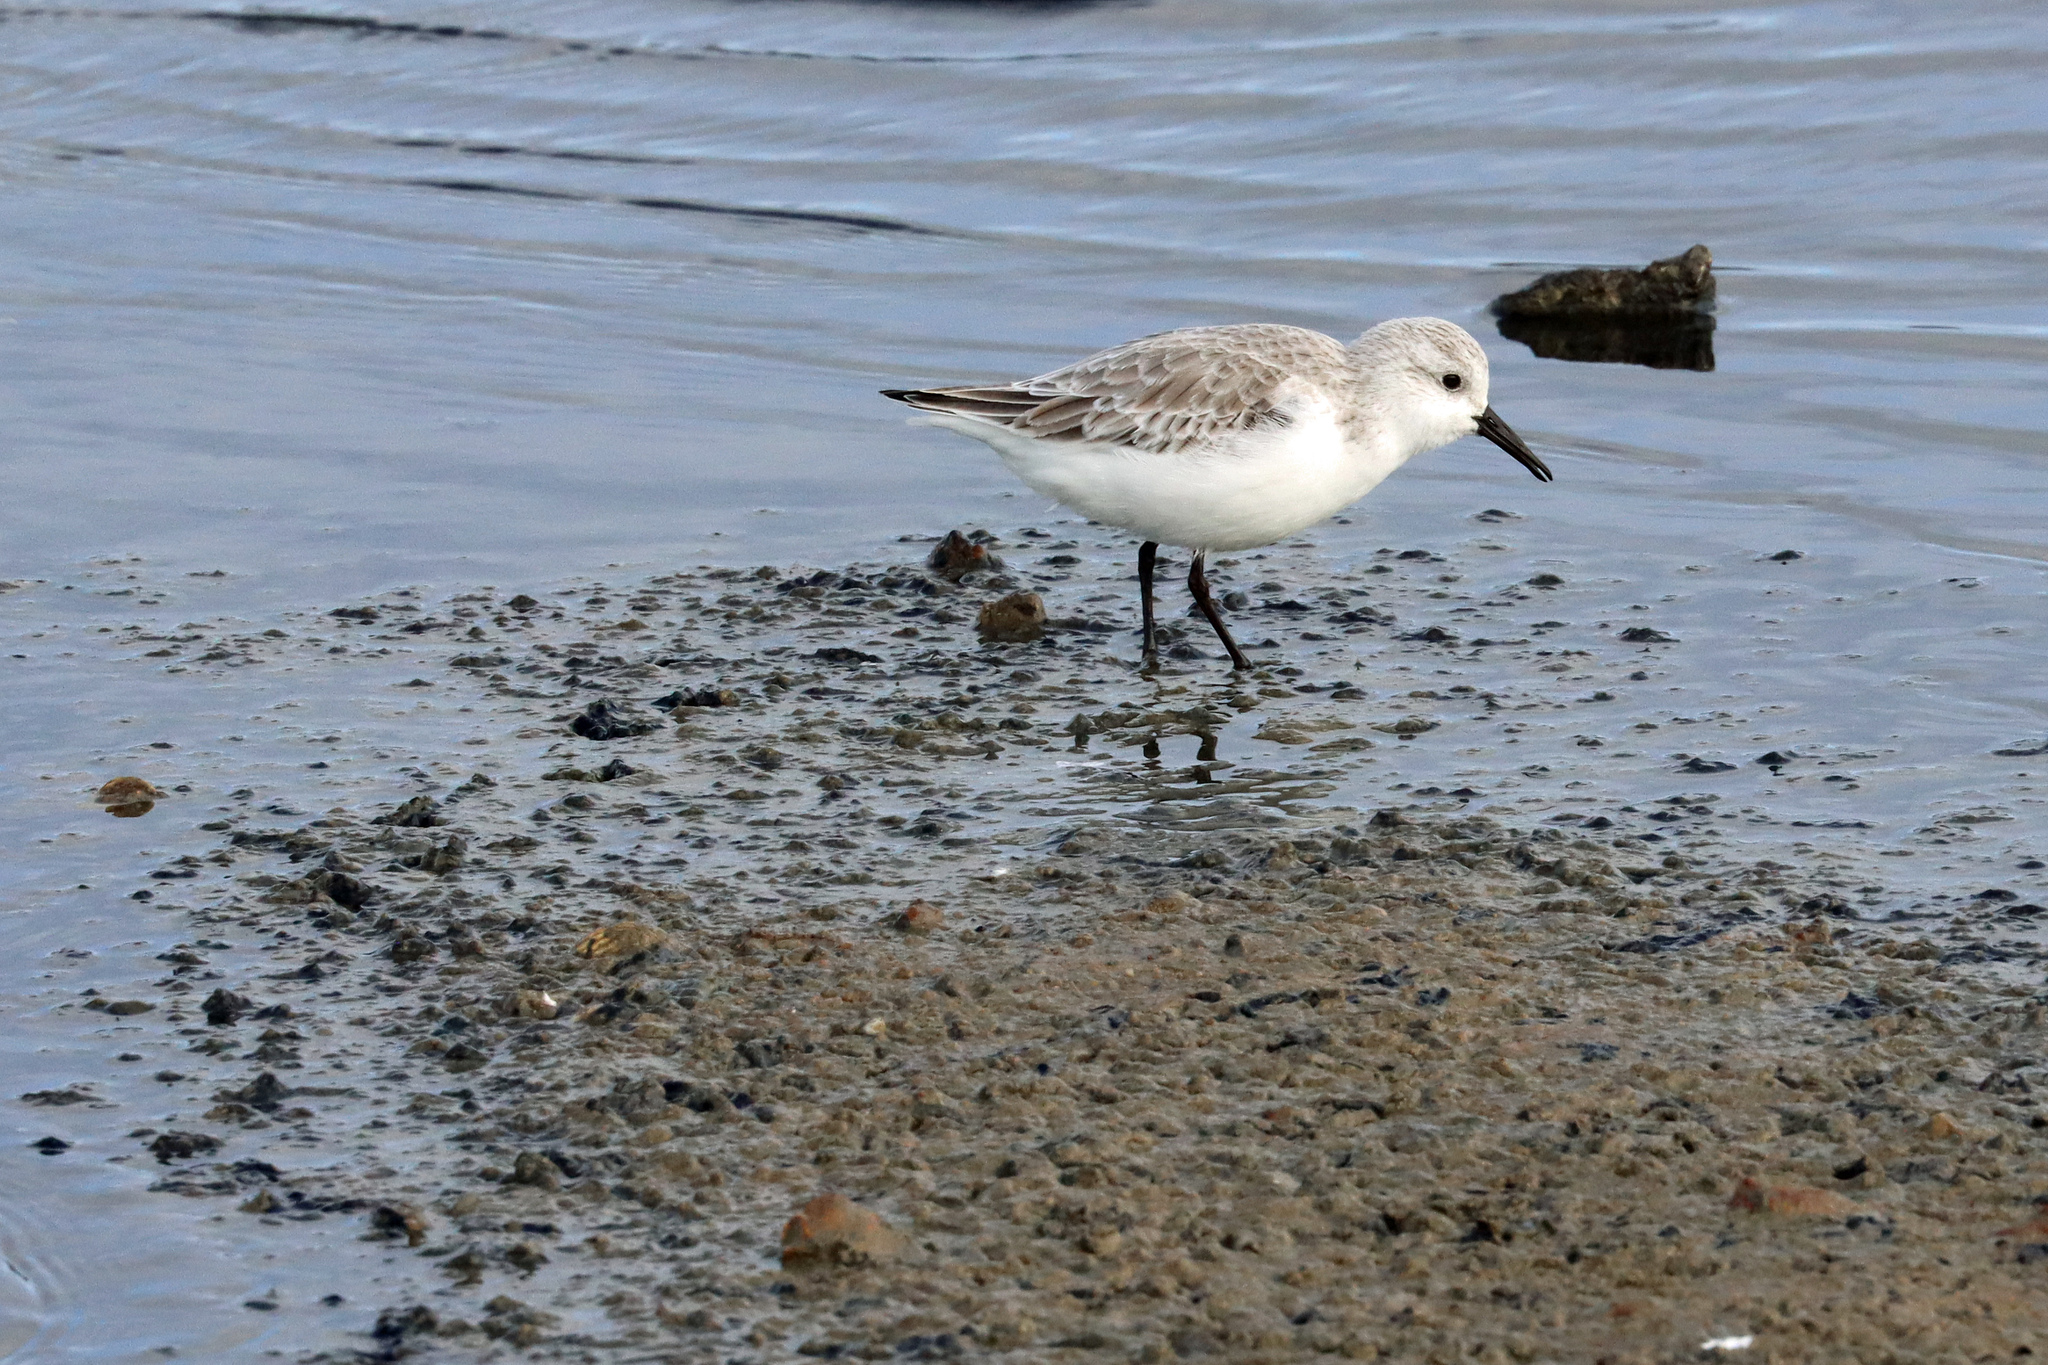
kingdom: Animalia
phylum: Chordata
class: Aves
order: Charadriiformes
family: Scolopacidae
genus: Calidris
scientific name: Calidris alba
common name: Sanderling
